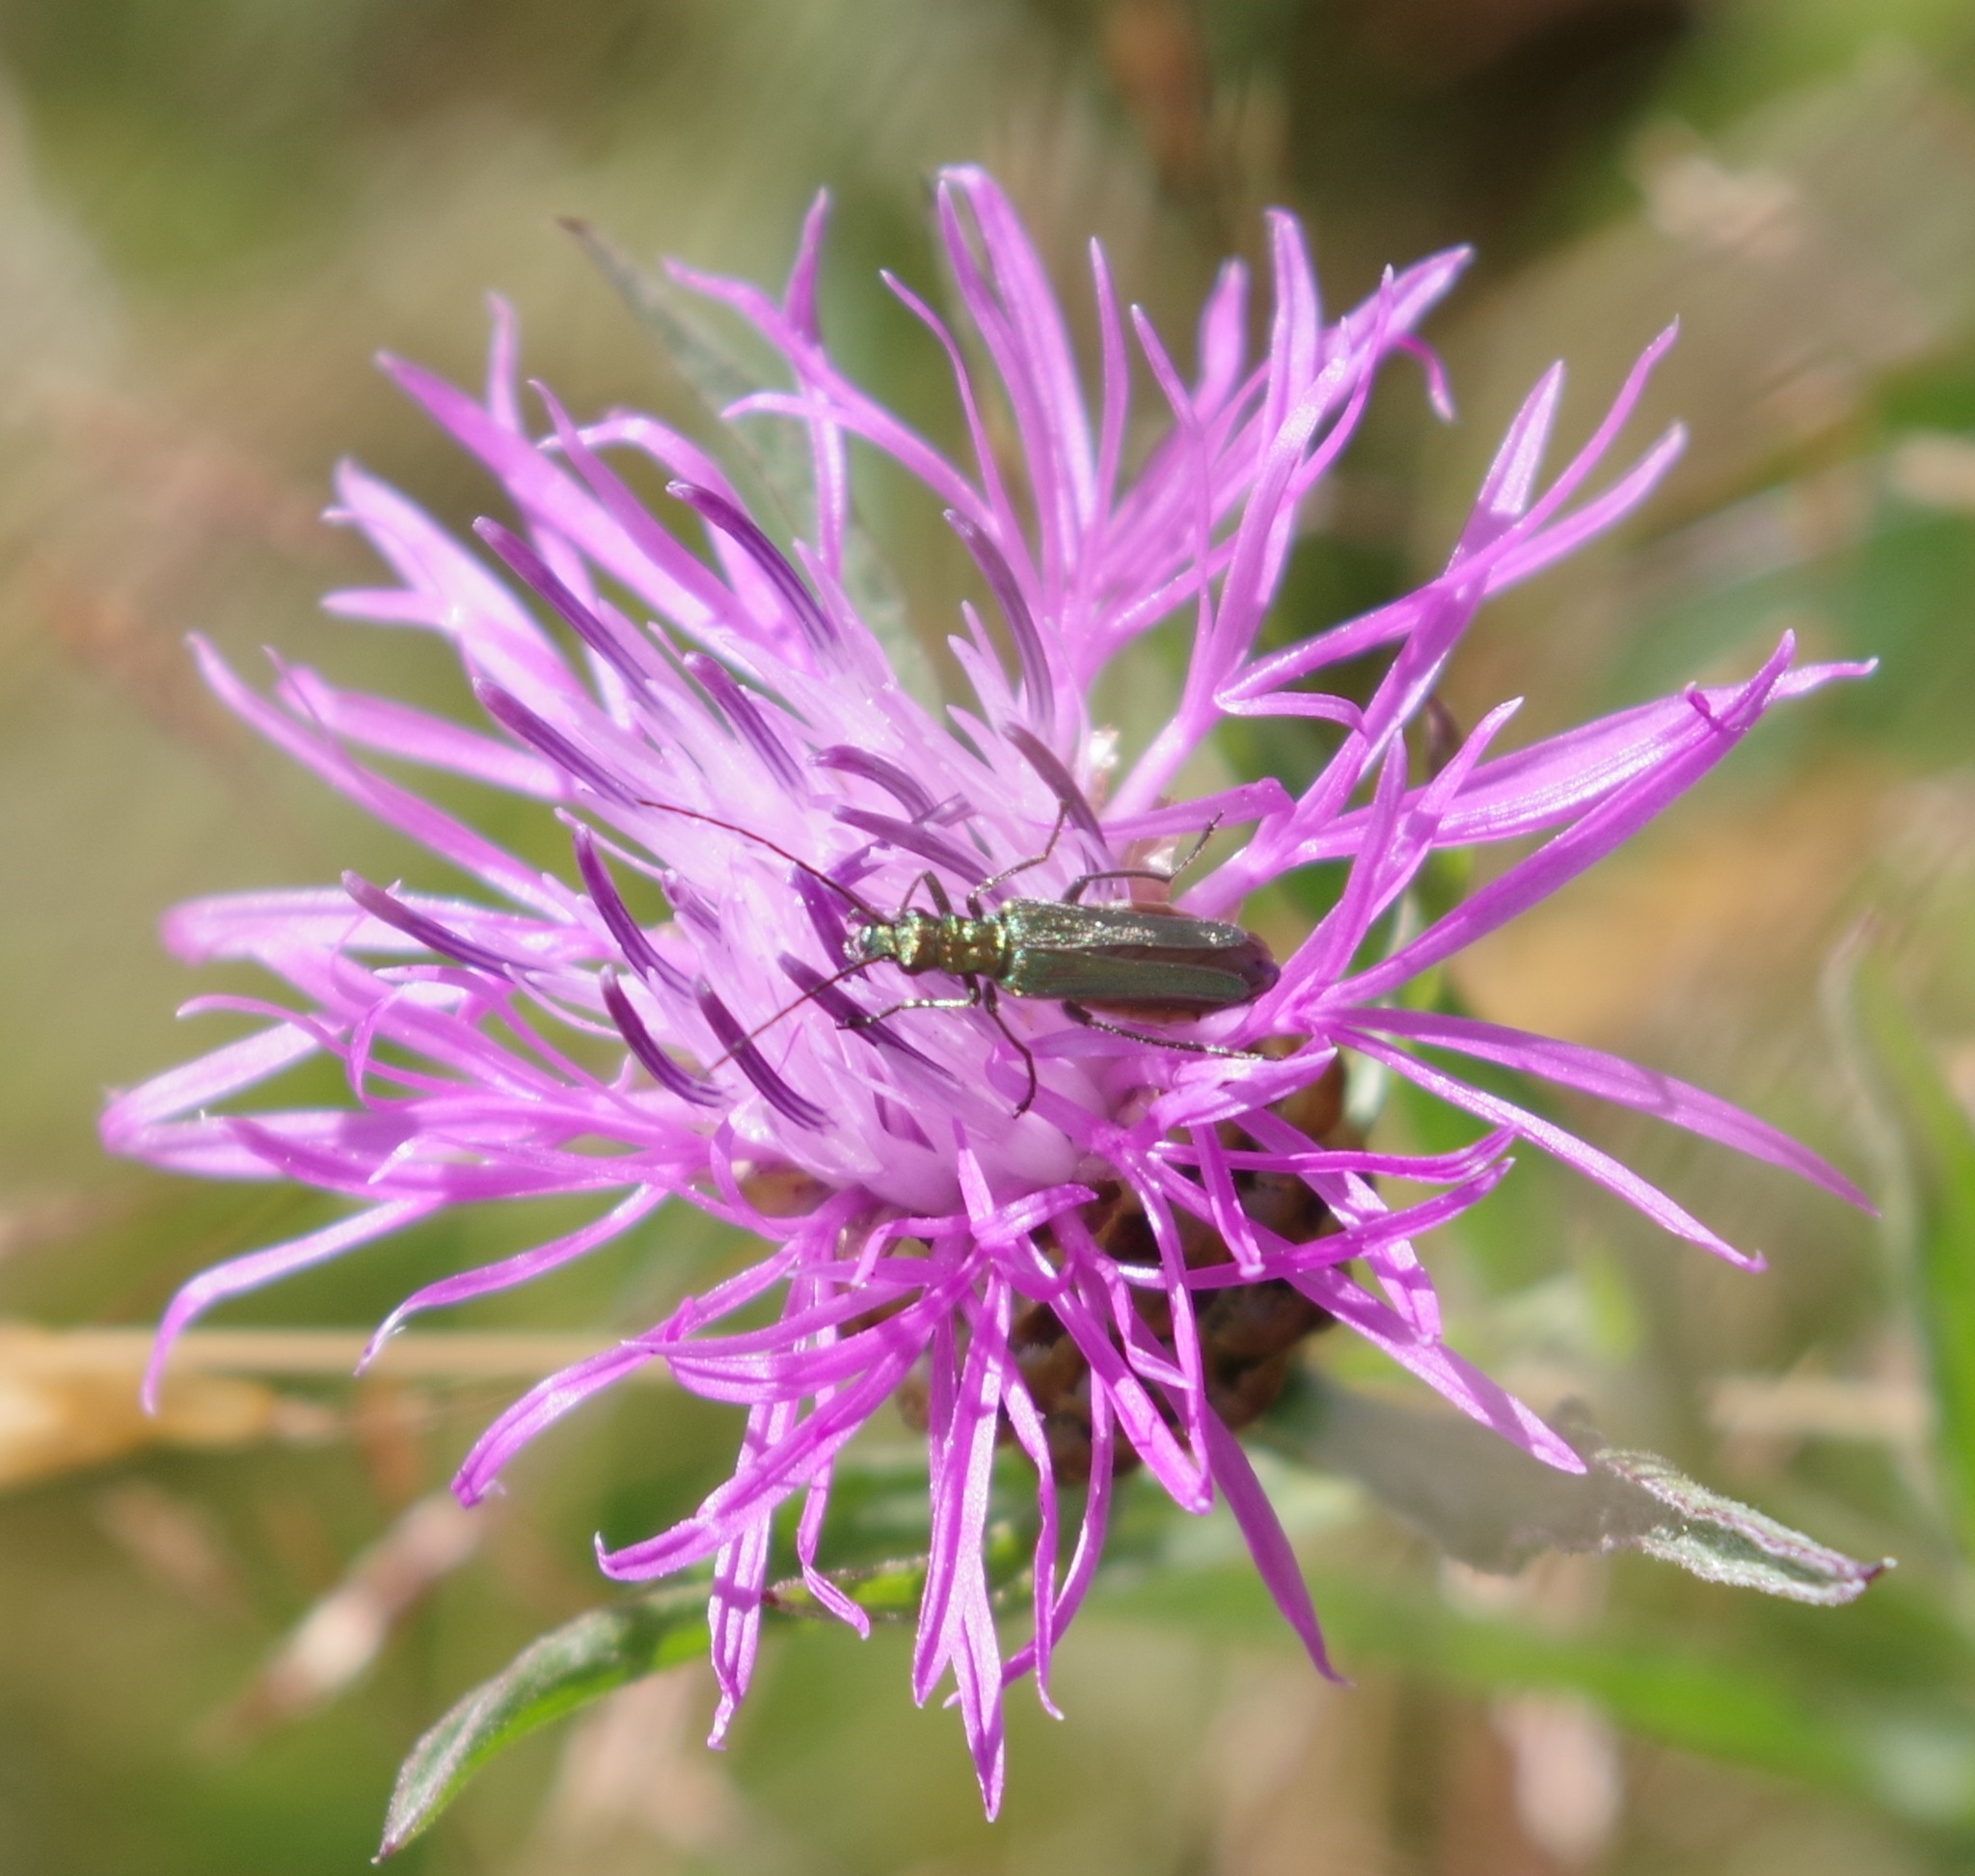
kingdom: Animalia
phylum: Arthropoda
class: Insecta
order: Coleoptera
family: Oedemeridae
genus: Oedemera
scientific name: Oedemera nobilis
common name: Swollen-thighed beetle
